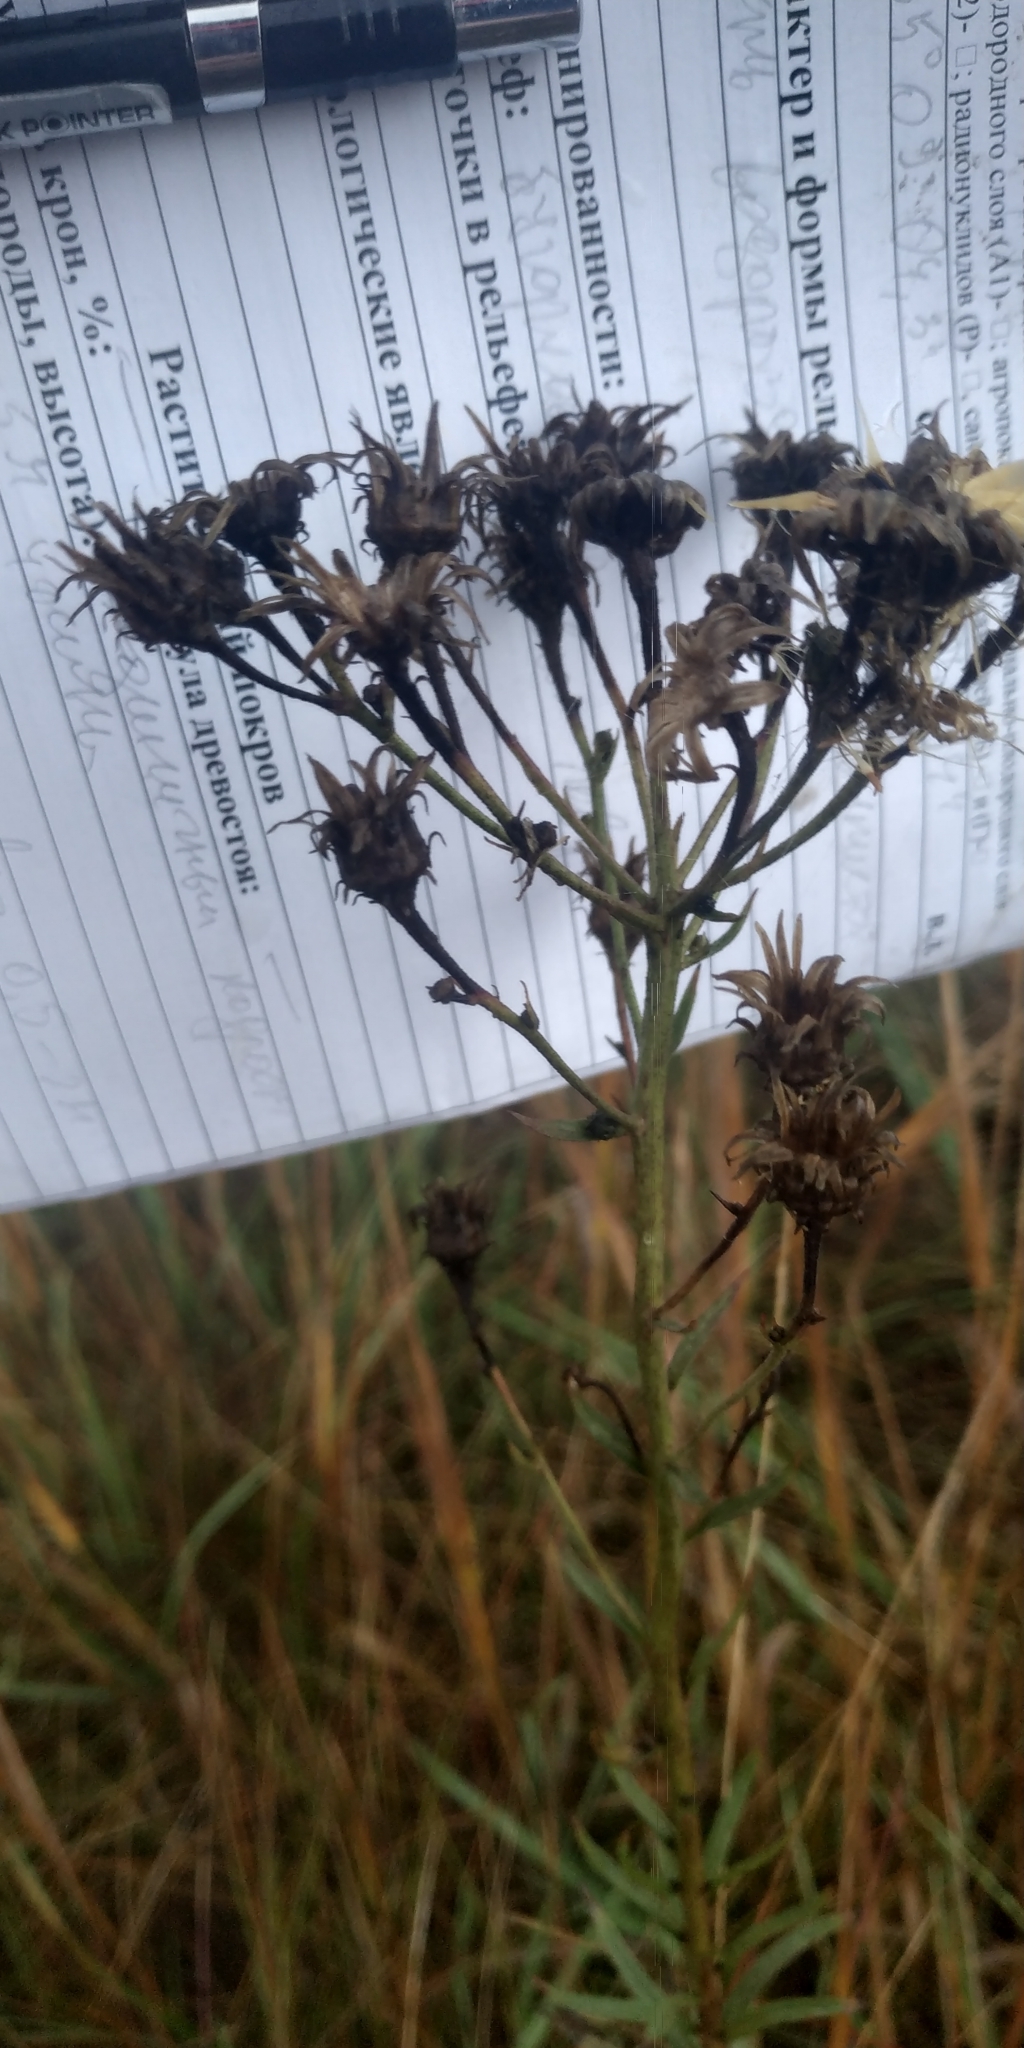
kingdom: Plantae
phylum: Tracheophyta
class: Magnoliopsida
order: Asterales
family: Asteraceae
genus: Hieracium
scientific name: Hieracium umbellatum
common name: Northern hawkweed
